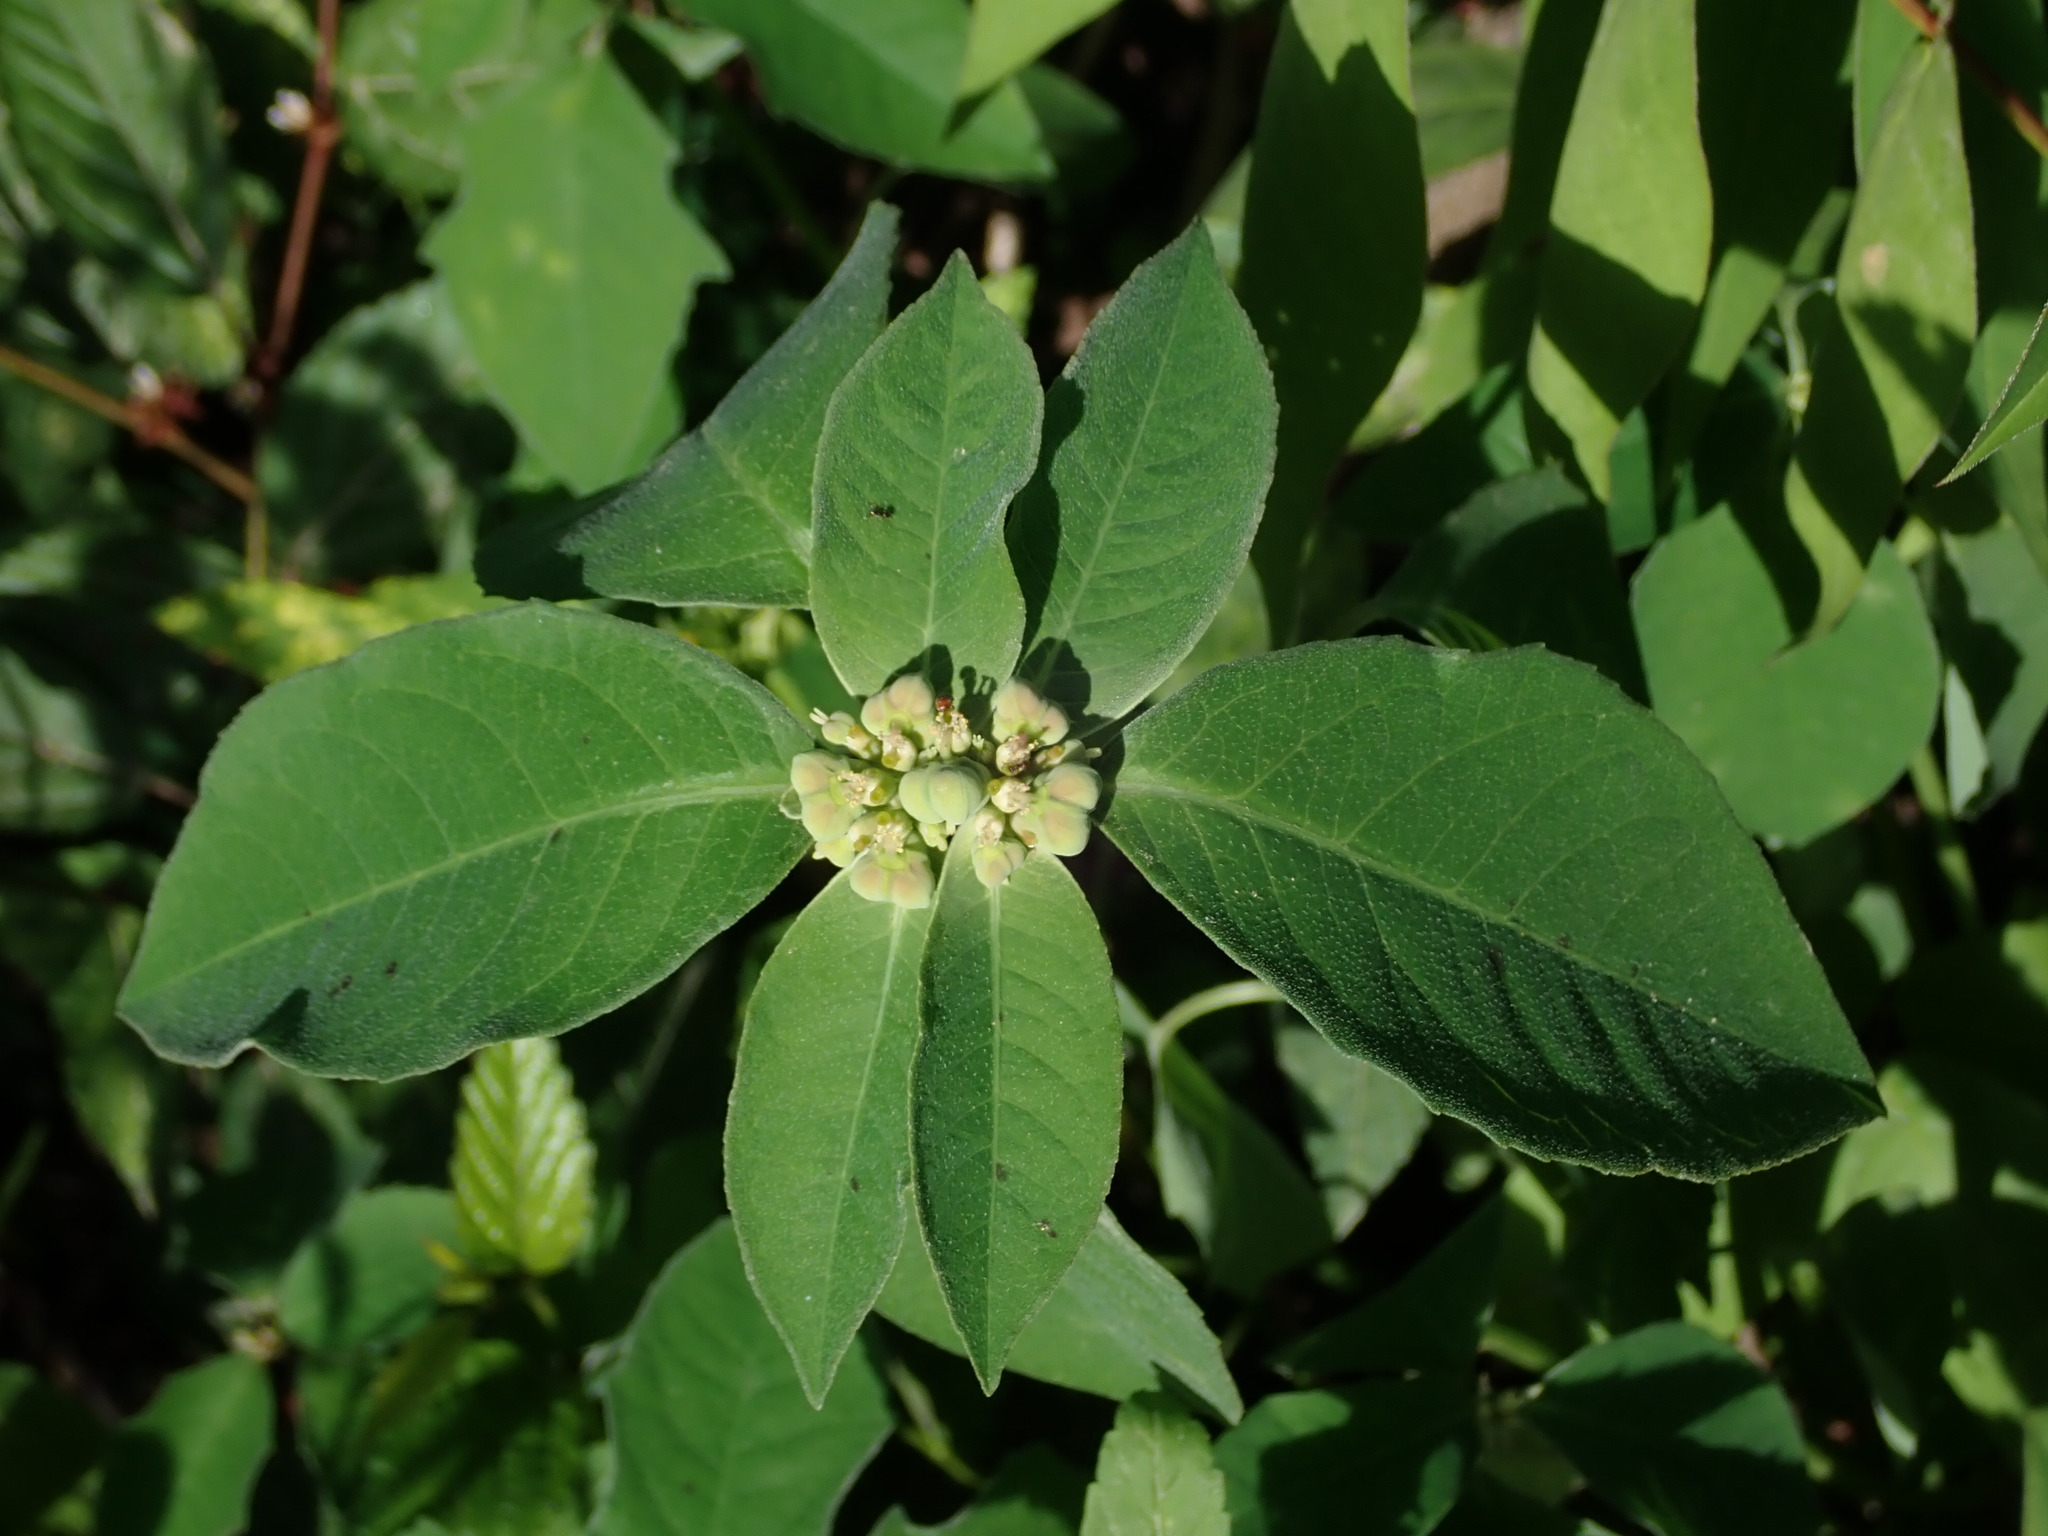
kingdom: Plantae
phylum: Tracheophyta
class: Magnoliopsida
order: Malpighiales
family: Euphorbiaceae
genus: Euphorbia
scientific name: Euphorbia heterophylla
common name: Mexican fireplant
